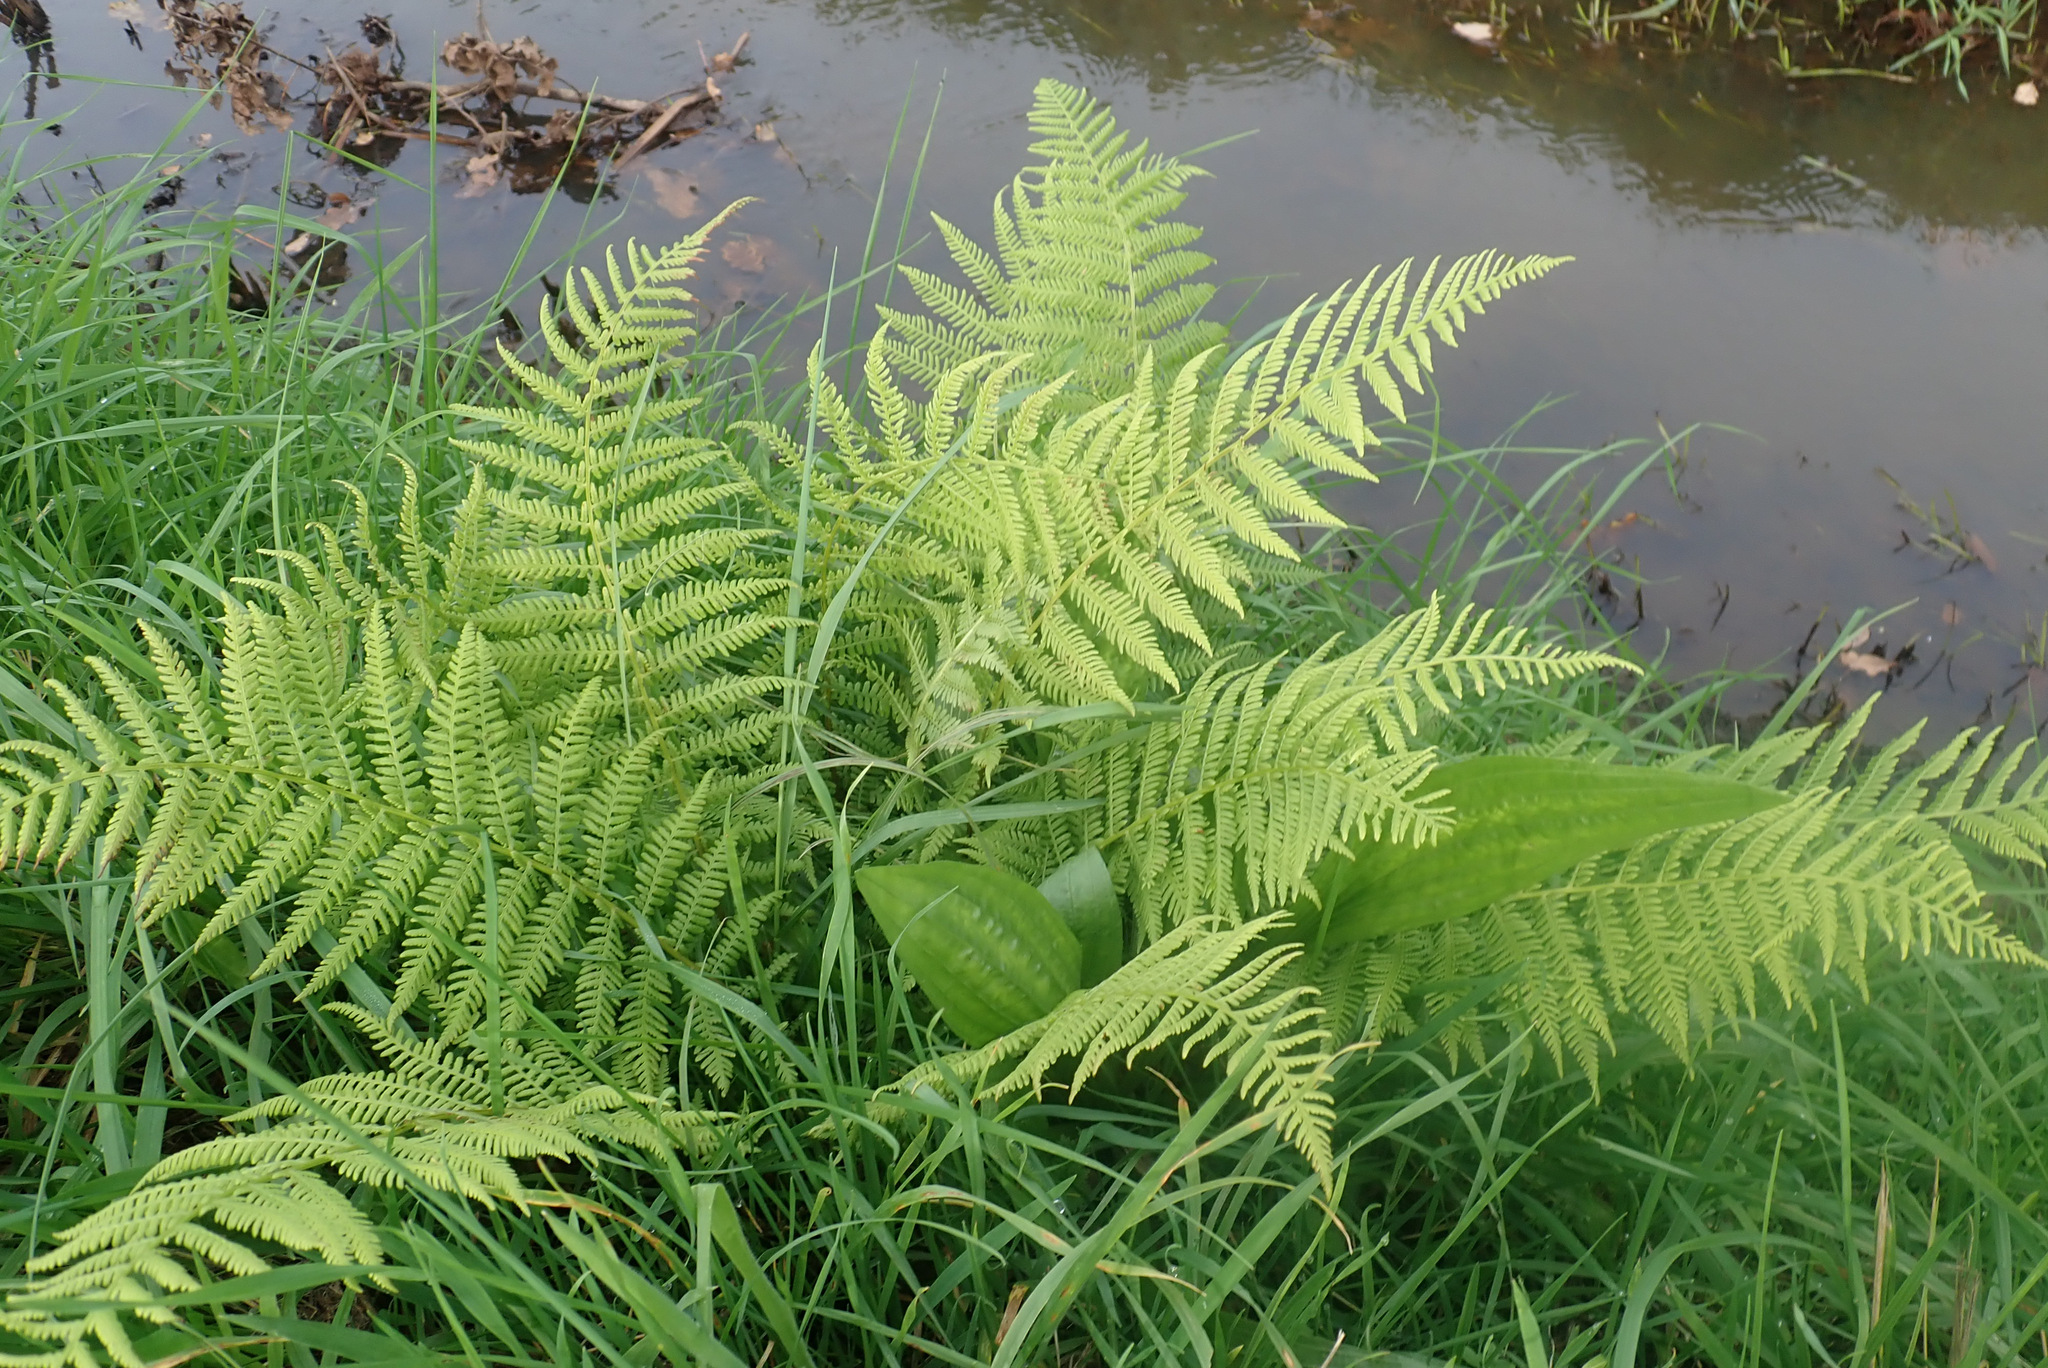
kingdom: Plantae
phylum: Tracheophyta
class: Polypodiopsida
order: Polypodiales
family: Athyriaceae
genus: Athyrium
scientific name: Athyrium filix-femina
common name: Lady fern
